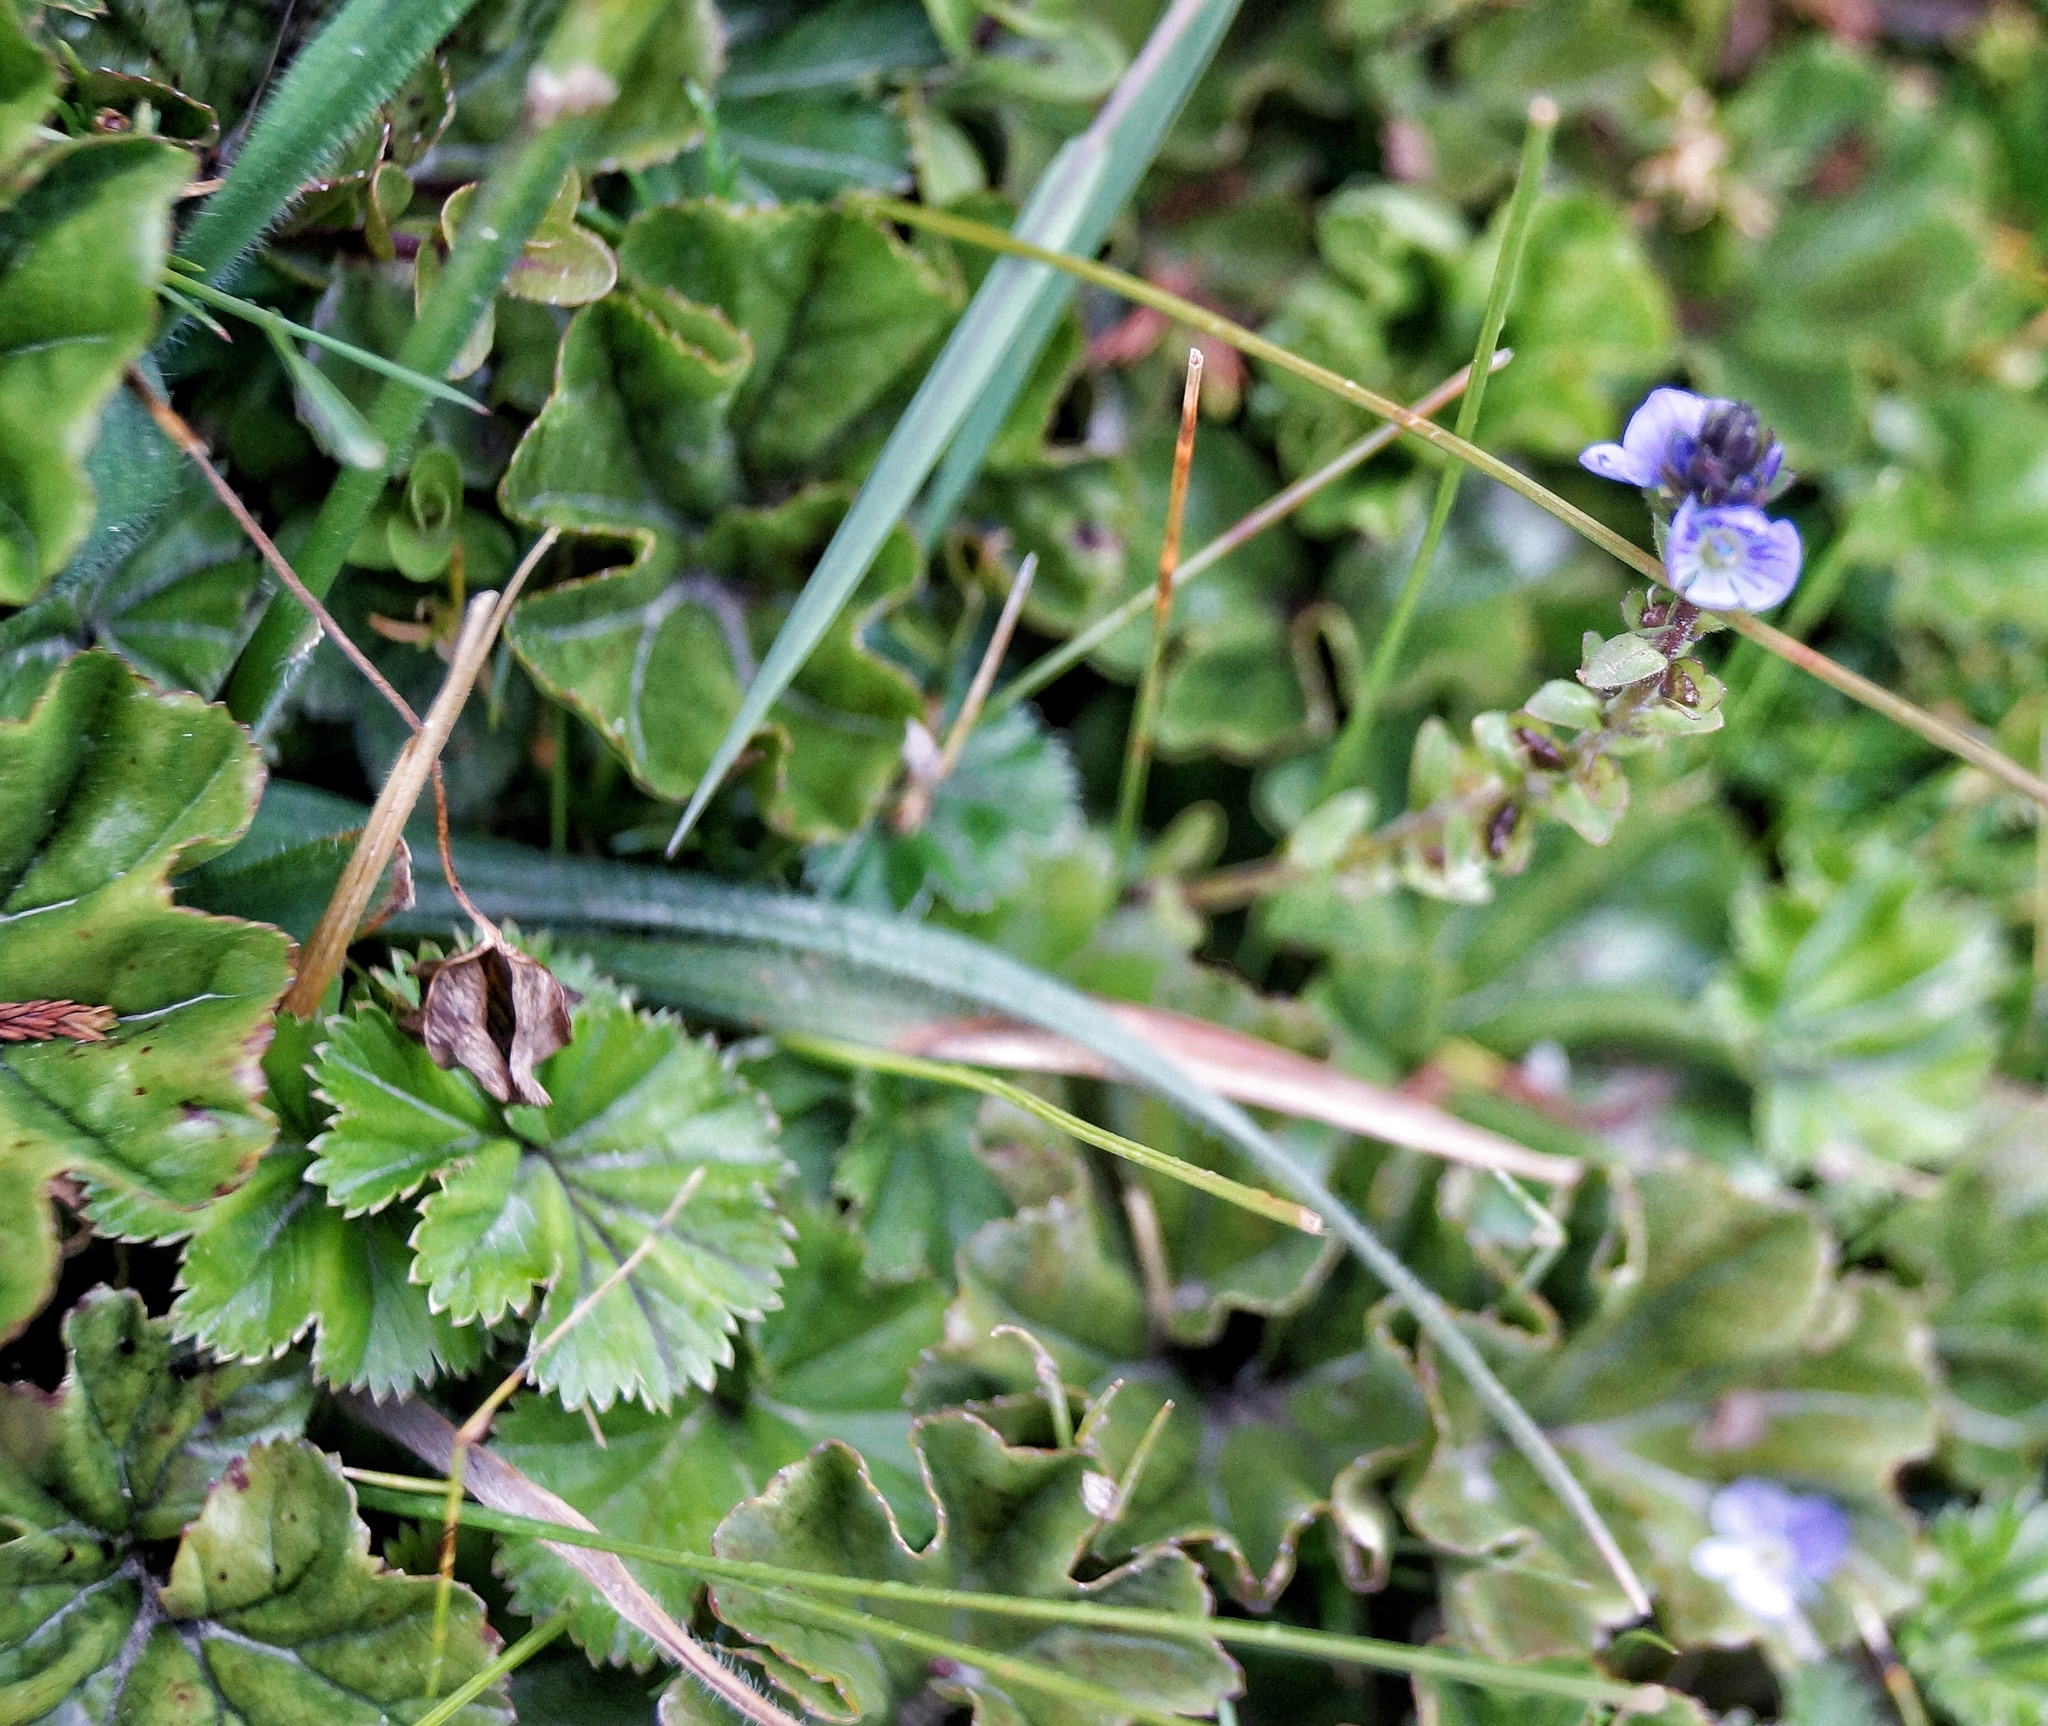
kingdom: Plantae
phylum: Tracheophyta
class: Magnoliopsida
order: Lamiales
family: Plantaginaceae
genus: Veronica
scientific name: Veronica serpyllifolia
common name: Thyme-leaved speedwell
